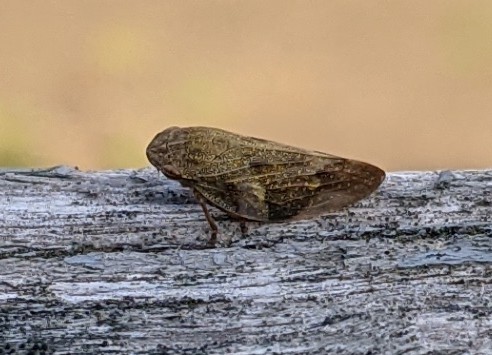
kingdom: Animalia
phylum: Arthropoda
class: Insecta
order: Hemiptera
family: Aphrophoridae
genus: Aphrophora
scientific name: Aphrophora alni
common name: European alder spittlebug
